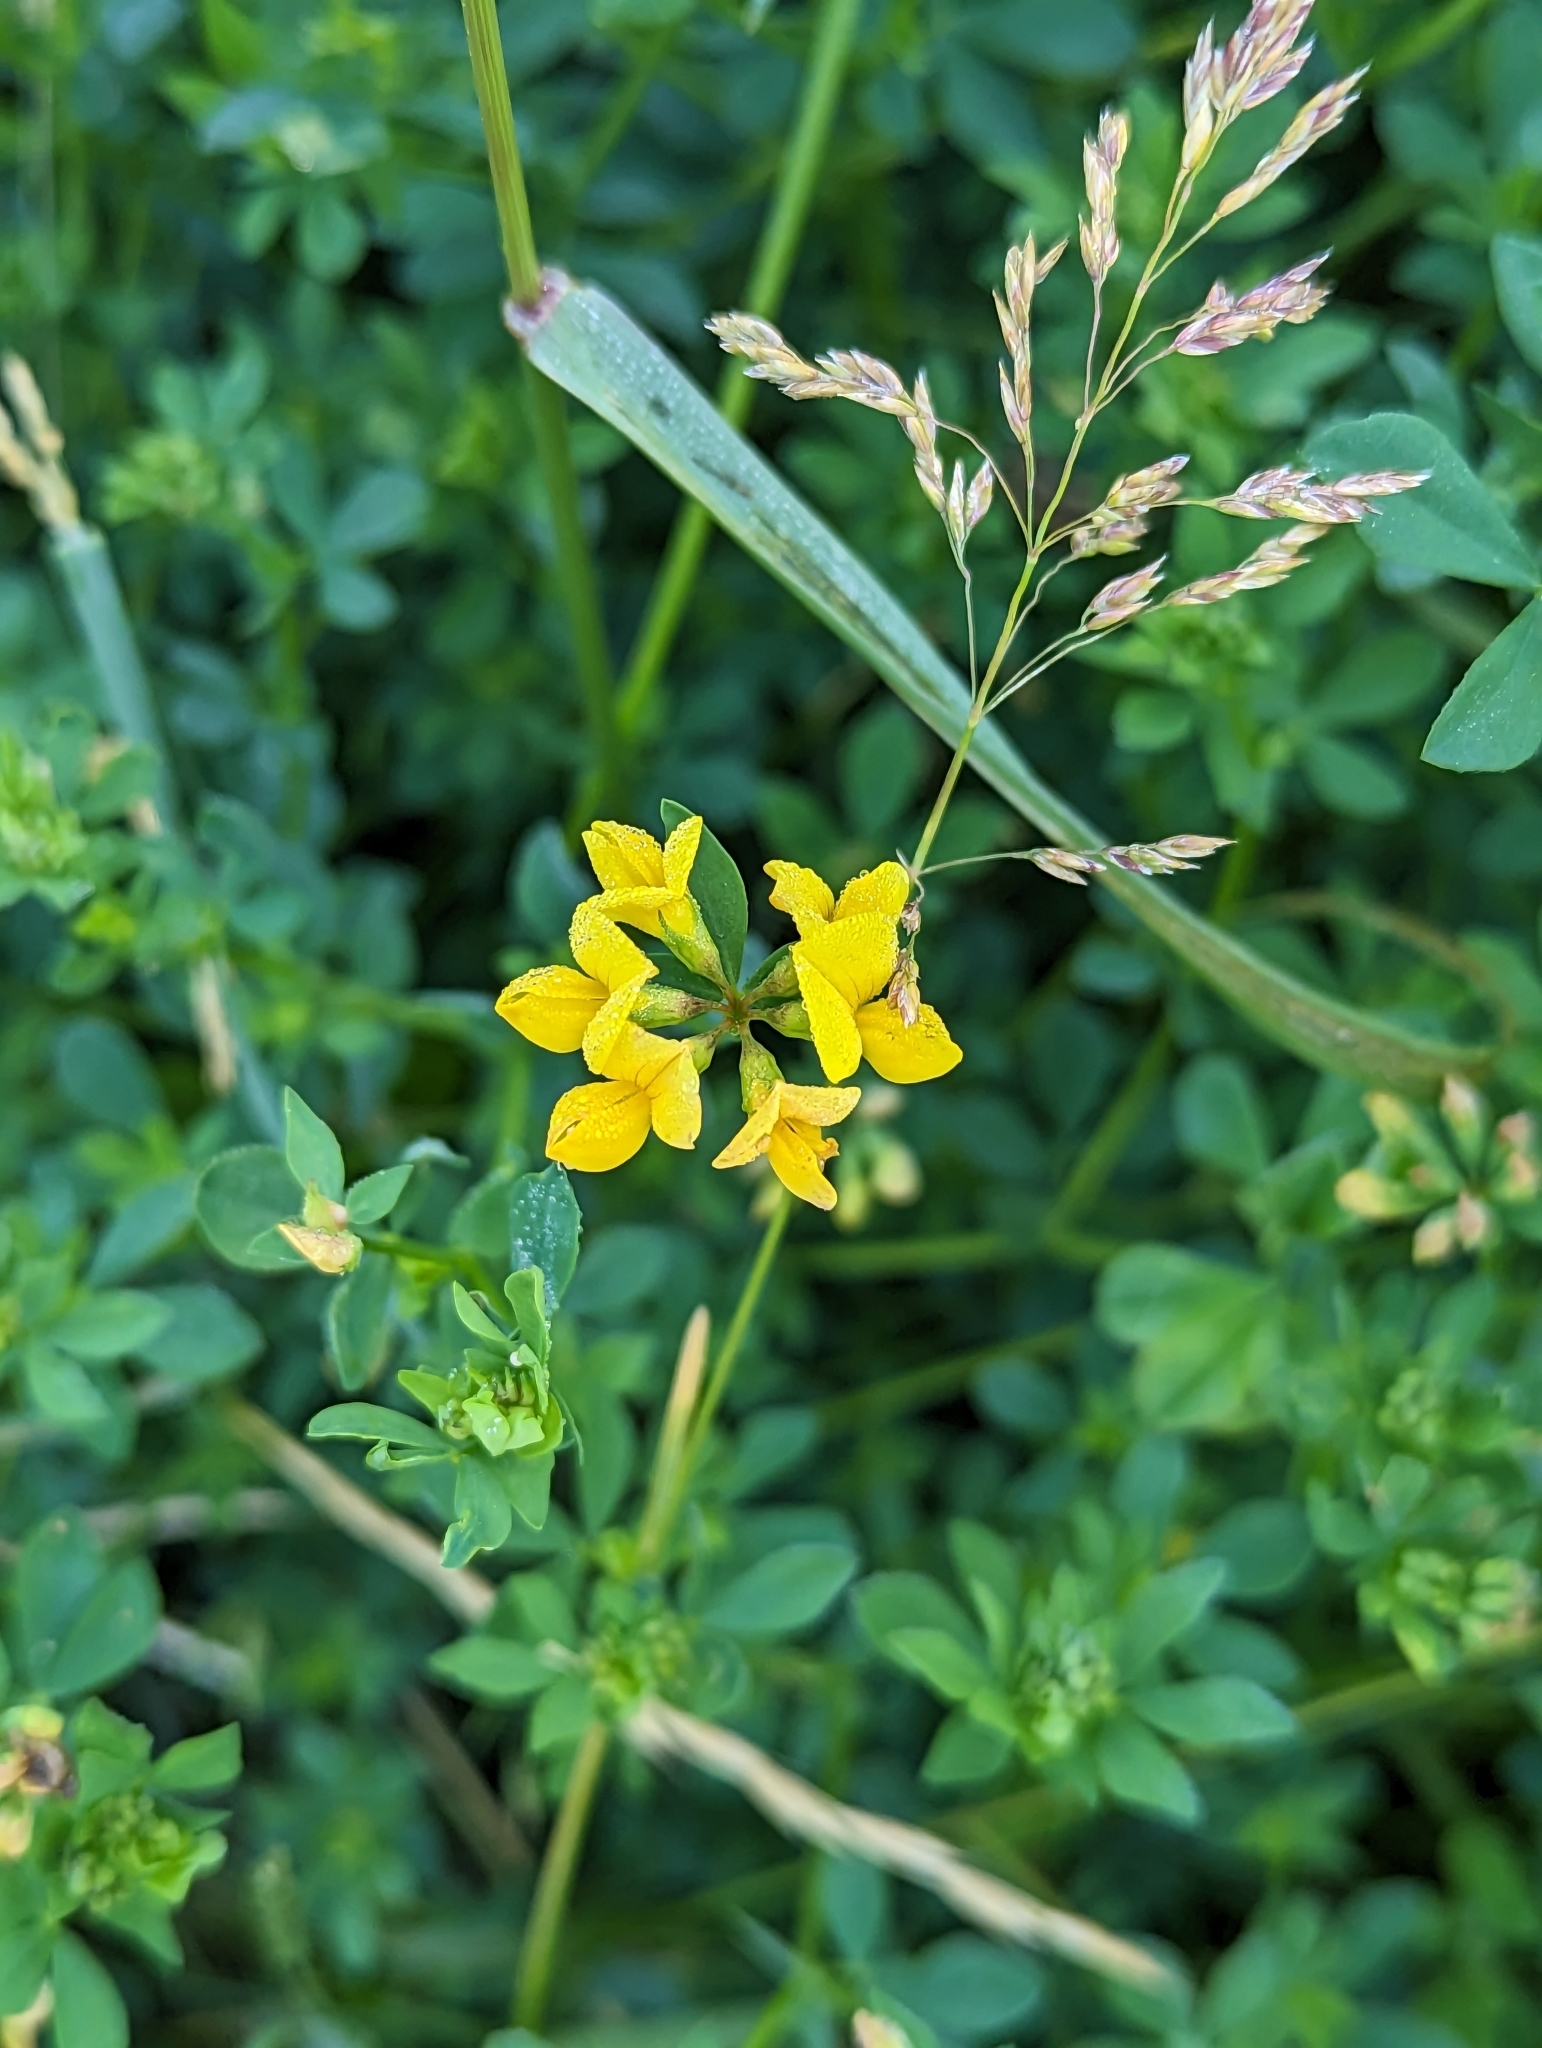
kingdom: Plantae
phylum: Tracheophyta
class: Magnoliopsida
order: Fabales
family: Fabaceae
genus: Lotus
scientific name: Lotus corniculatus
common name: Common bird's-foot-trefoil
